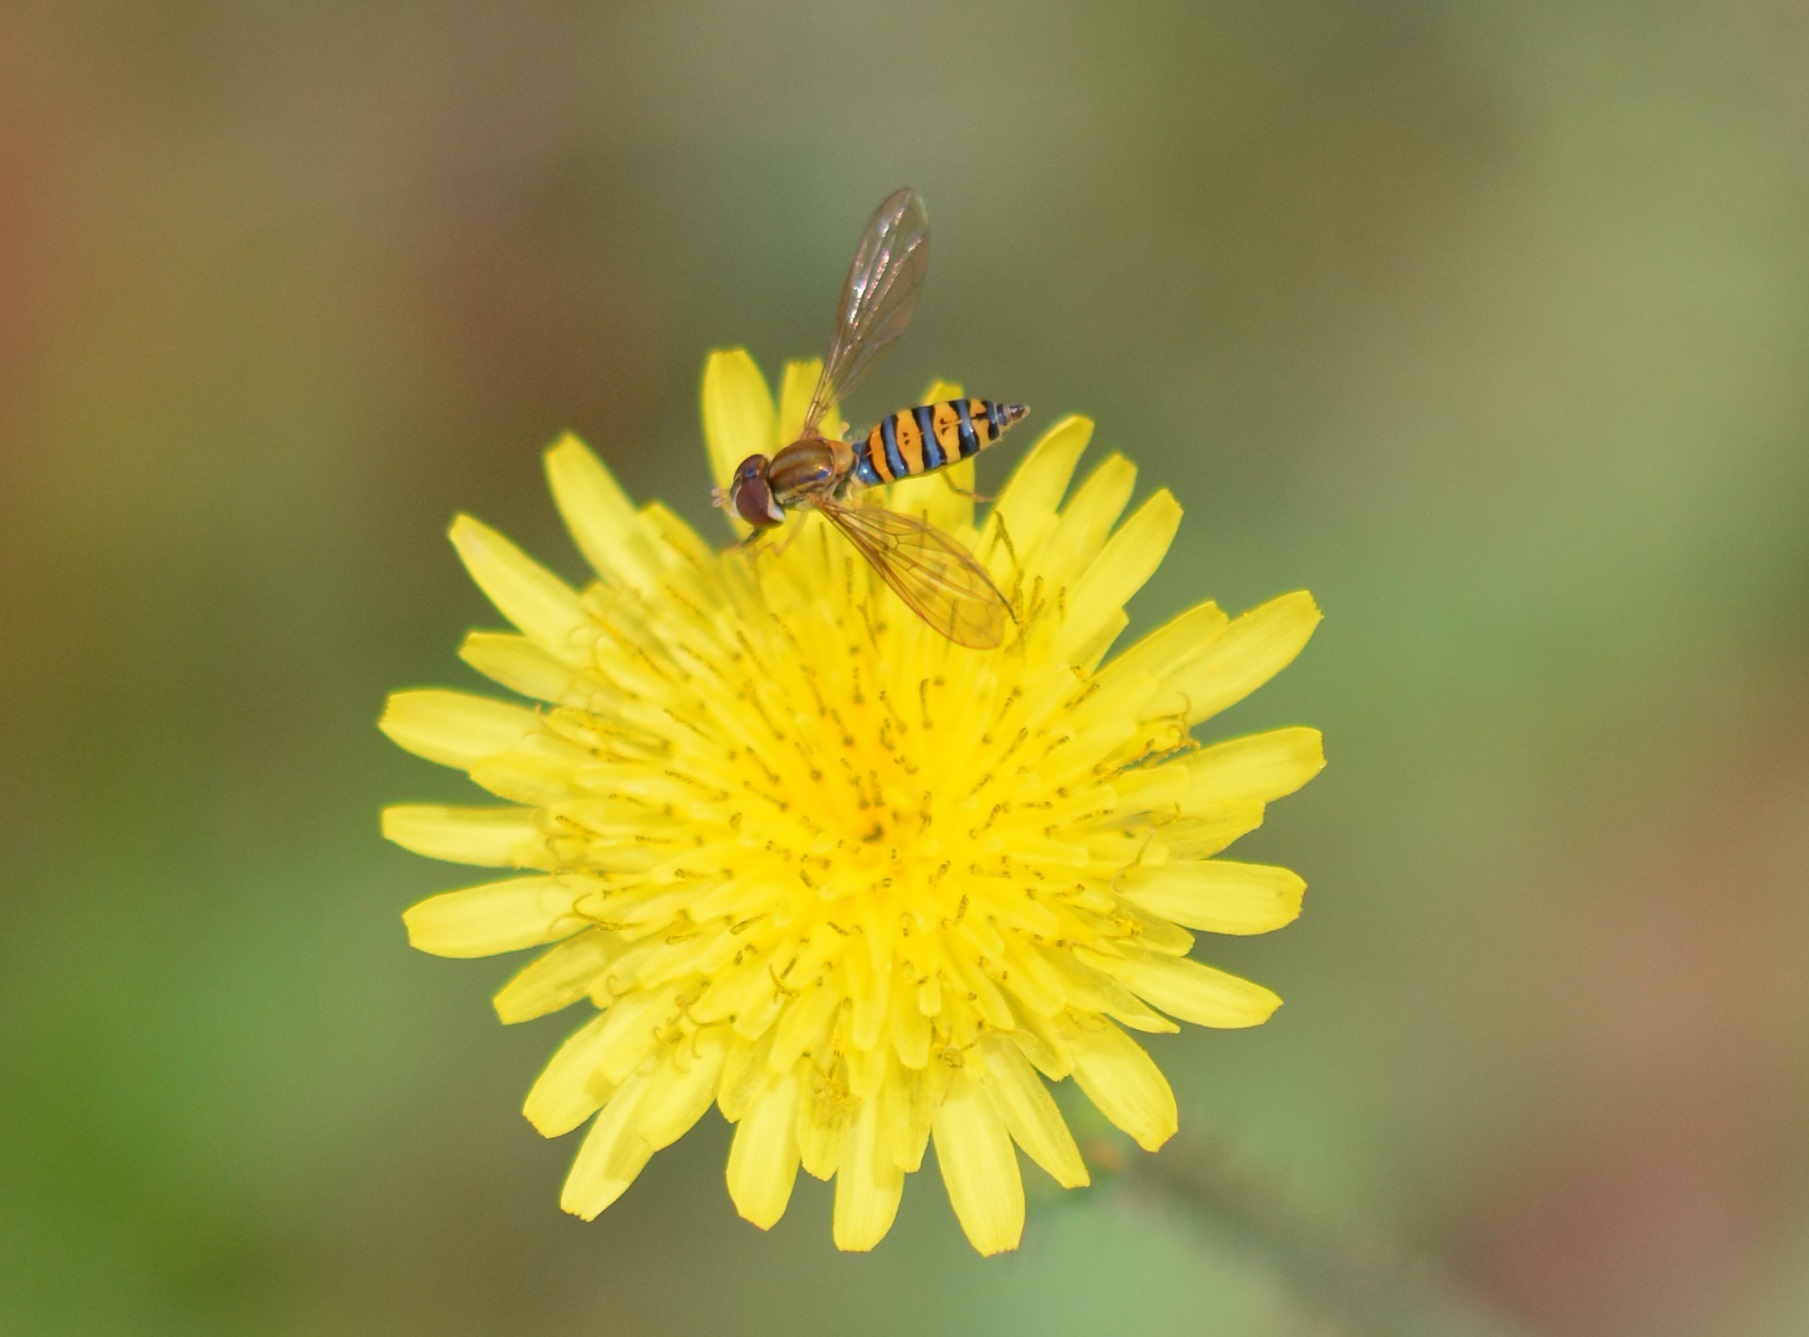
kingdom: Animalia
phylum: Arthropoda
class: Insecta
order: Diptera
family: Syrphidae
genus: Toxomerus
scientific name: Toxomerus mutuus
